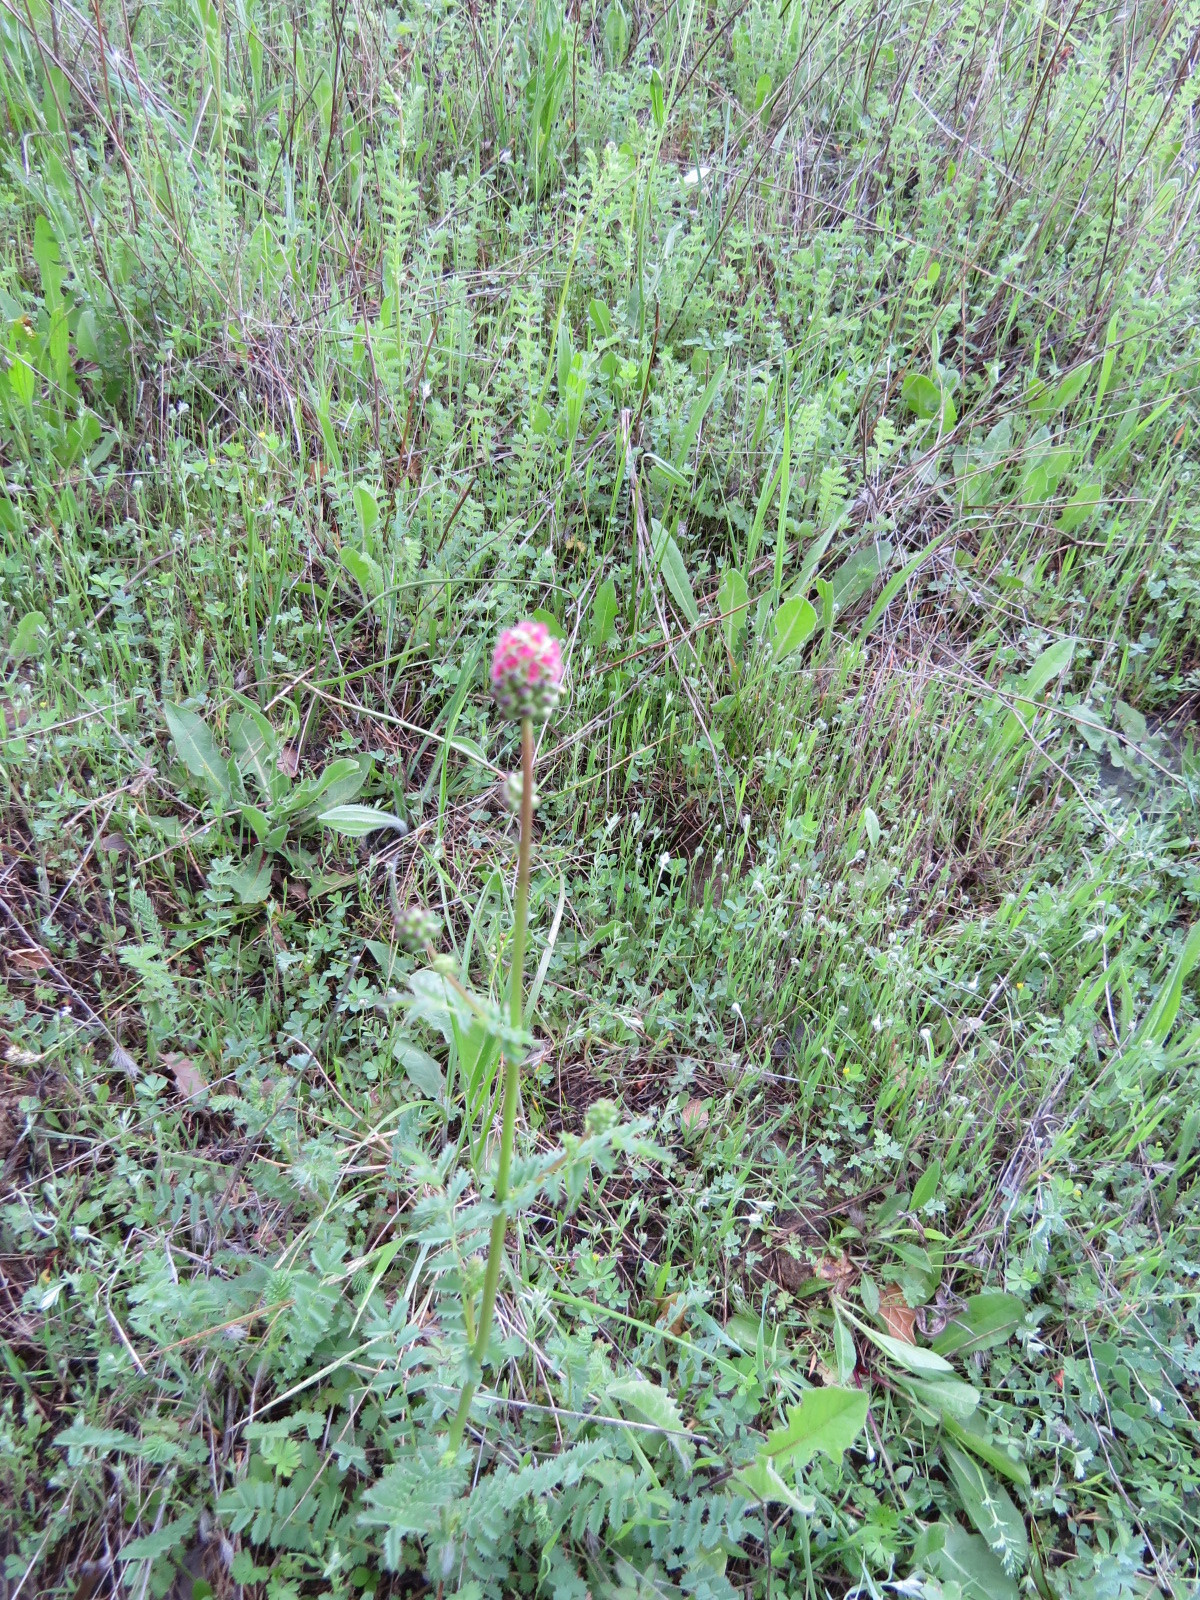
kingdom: Plantae
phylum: Tracheophyta
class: Magnoliopsida
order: Rosales
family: Rosaceae
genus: Poterium
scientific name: Poterium sanguisorba
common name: Salad burnet
